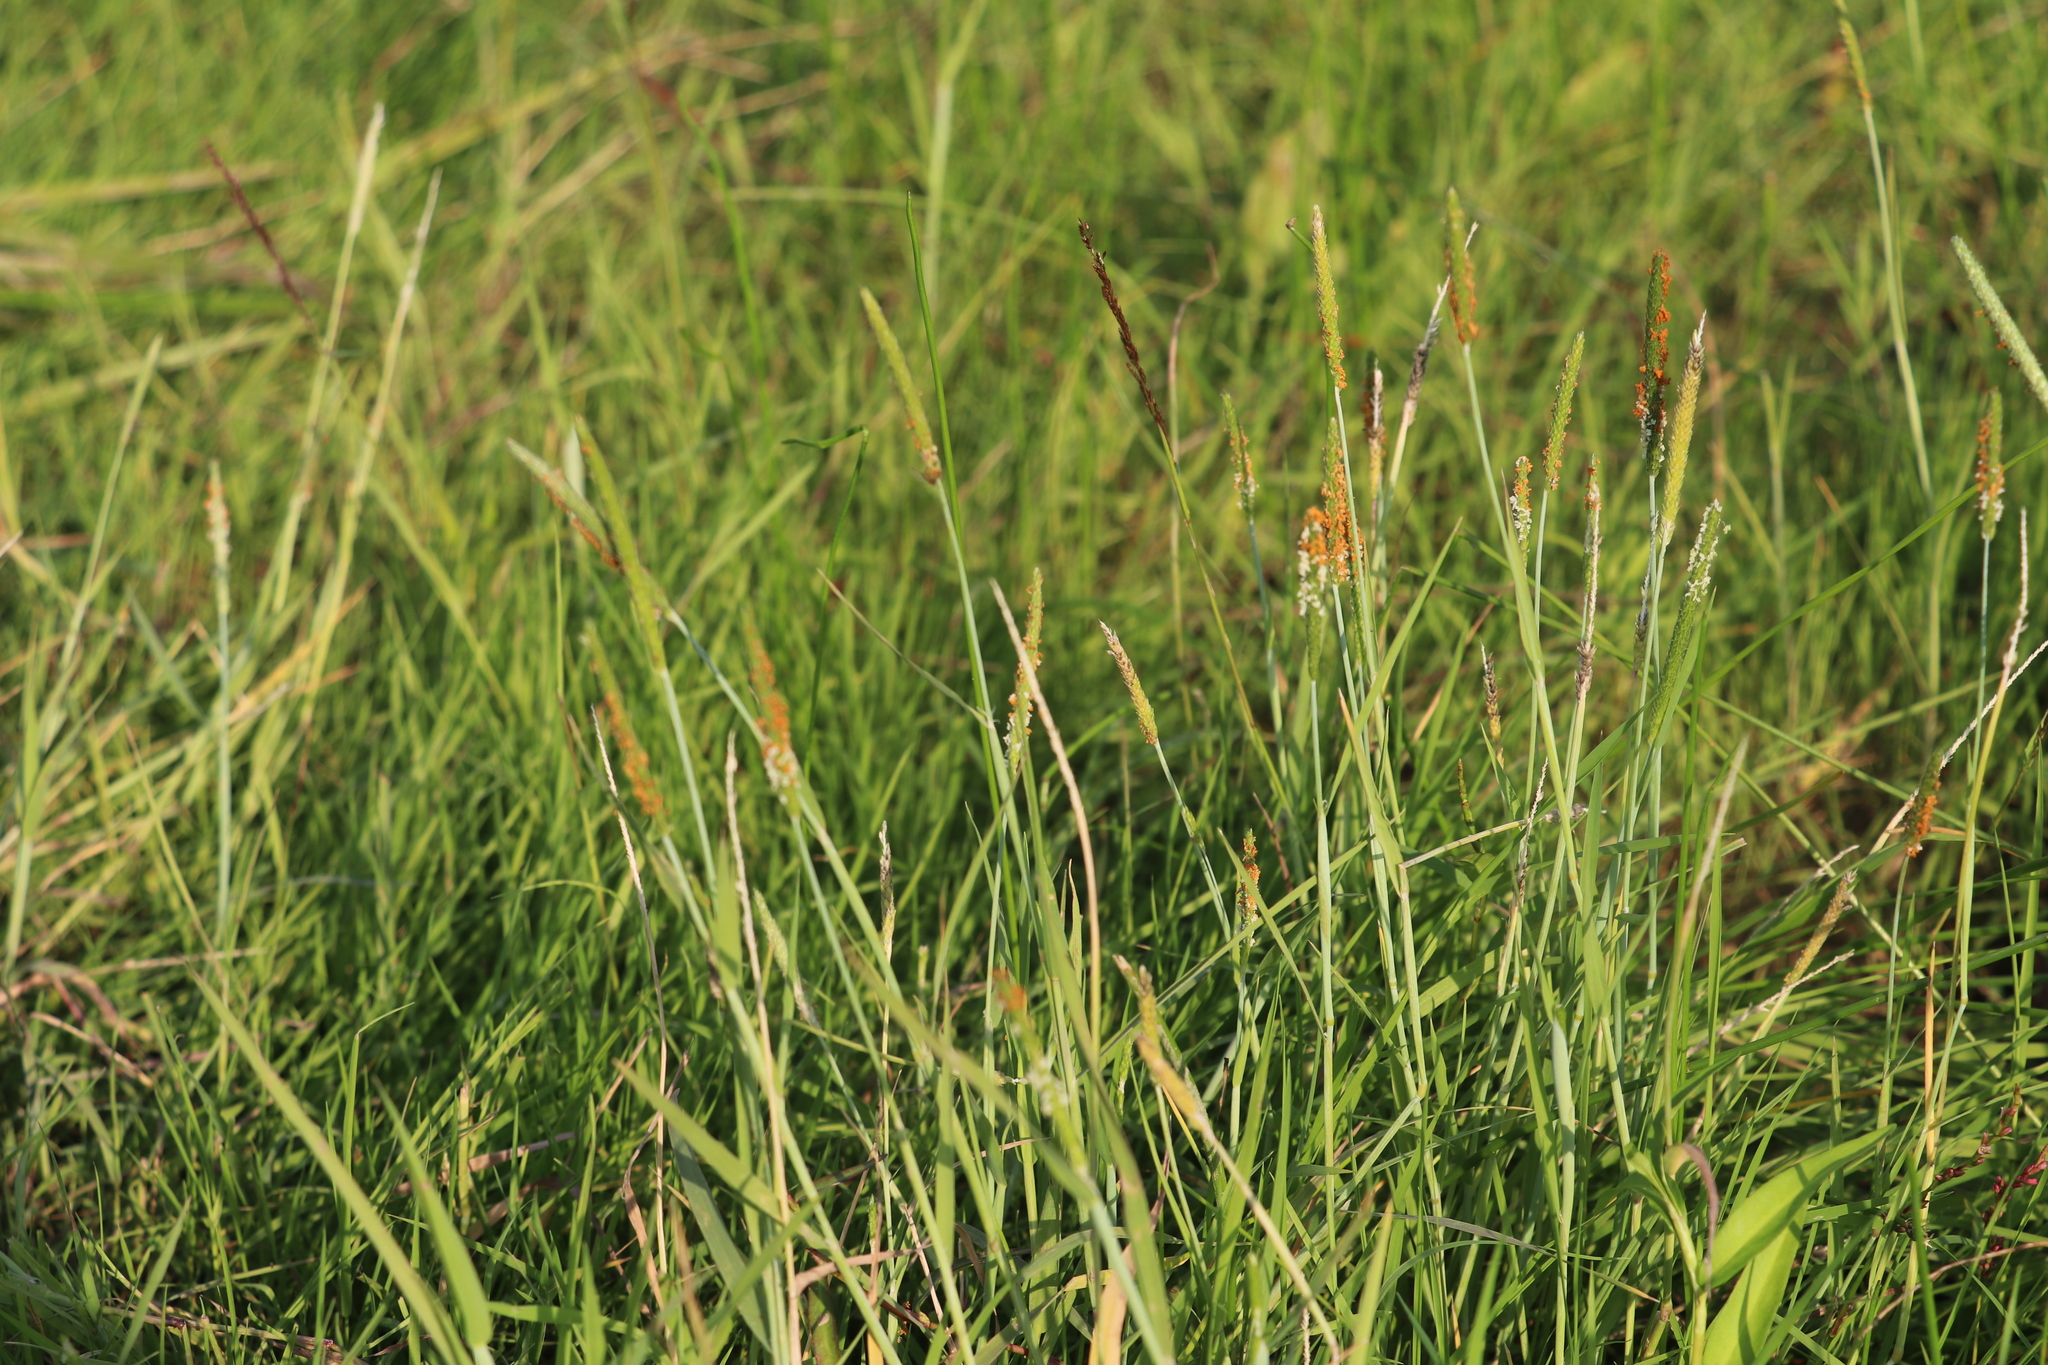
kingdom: Plantae
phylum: Tracheophyta
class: Liliopsida
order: Poales
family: Poaceae
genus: Alopecurus
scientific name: Alopecurus aequalis
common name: Orange foxtail
